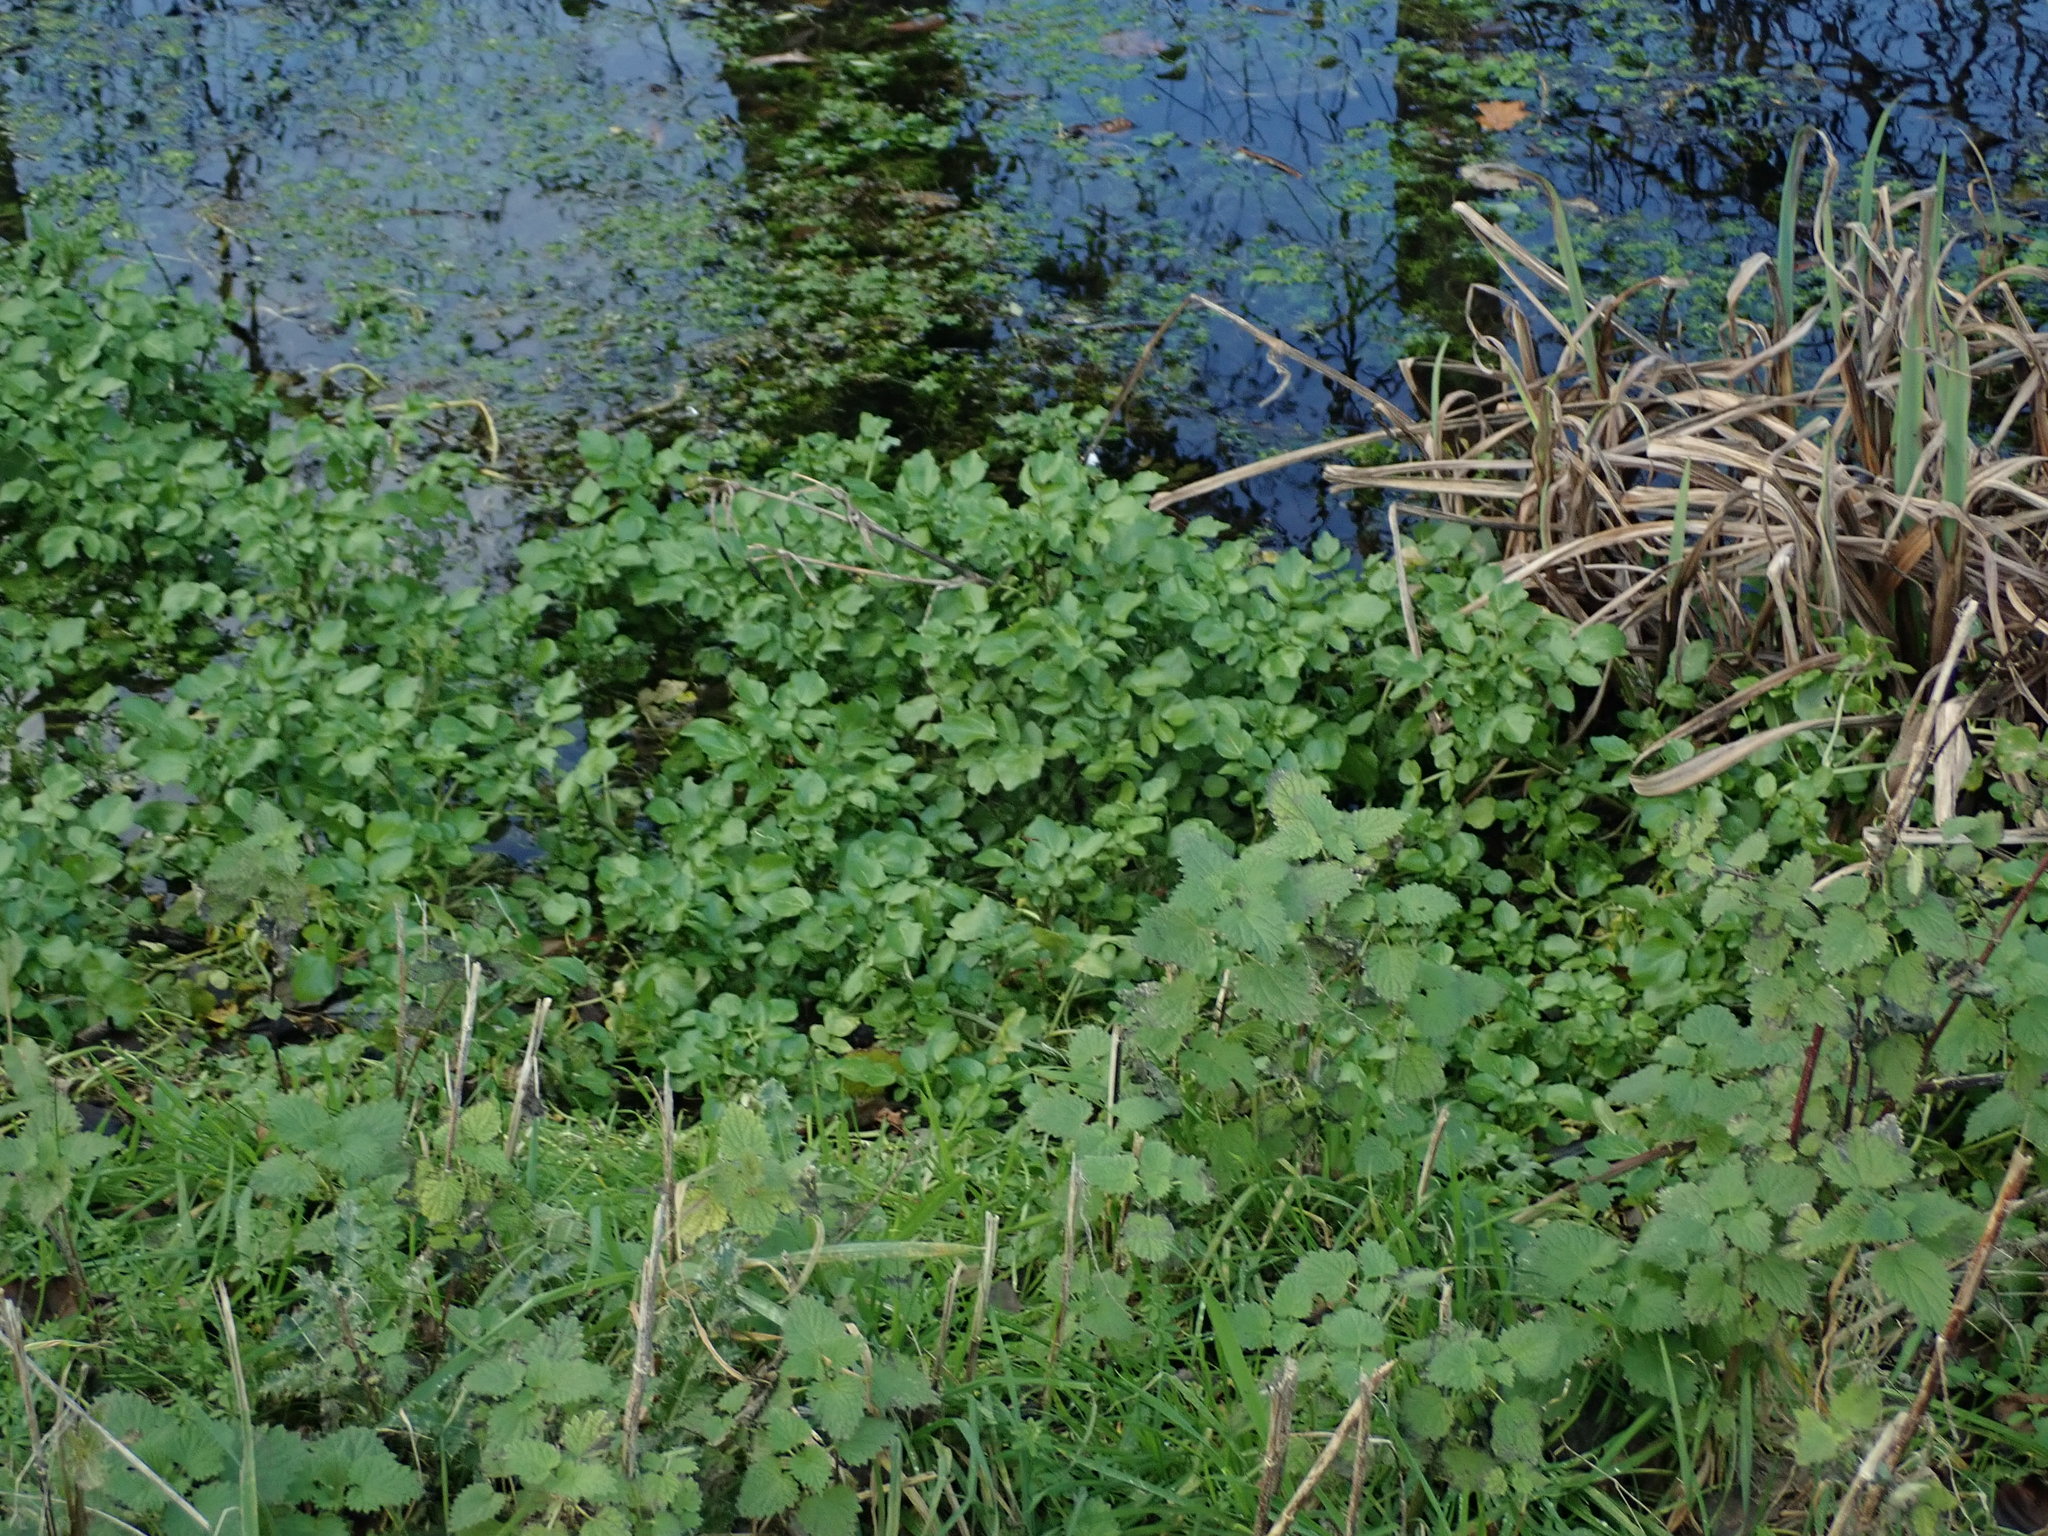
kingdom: Plantae
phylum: Tracheophyta
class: Magnoliopsida
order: Apiales
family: Apiaceae
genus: Helosciadium
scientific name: Helosciadium nodiflorum
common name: Fool's-watercress
